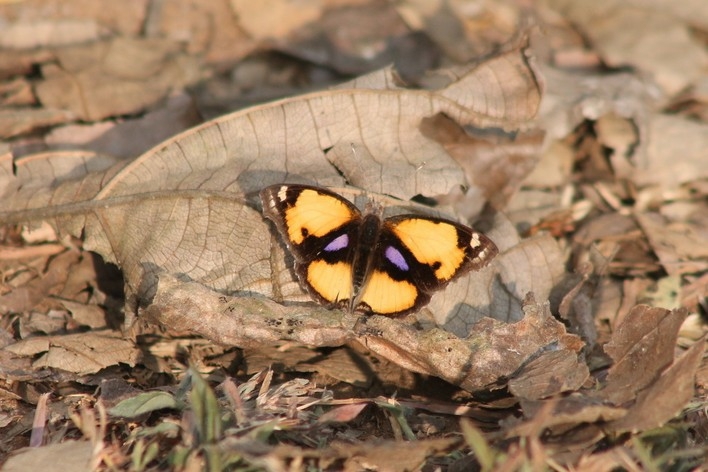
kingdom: Animalia
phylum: Arthropoda
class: Insecta
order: Lepidoptera
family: Nymphalidae
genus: Junonia
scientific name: Junonia hierta
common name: Yellow pansy
